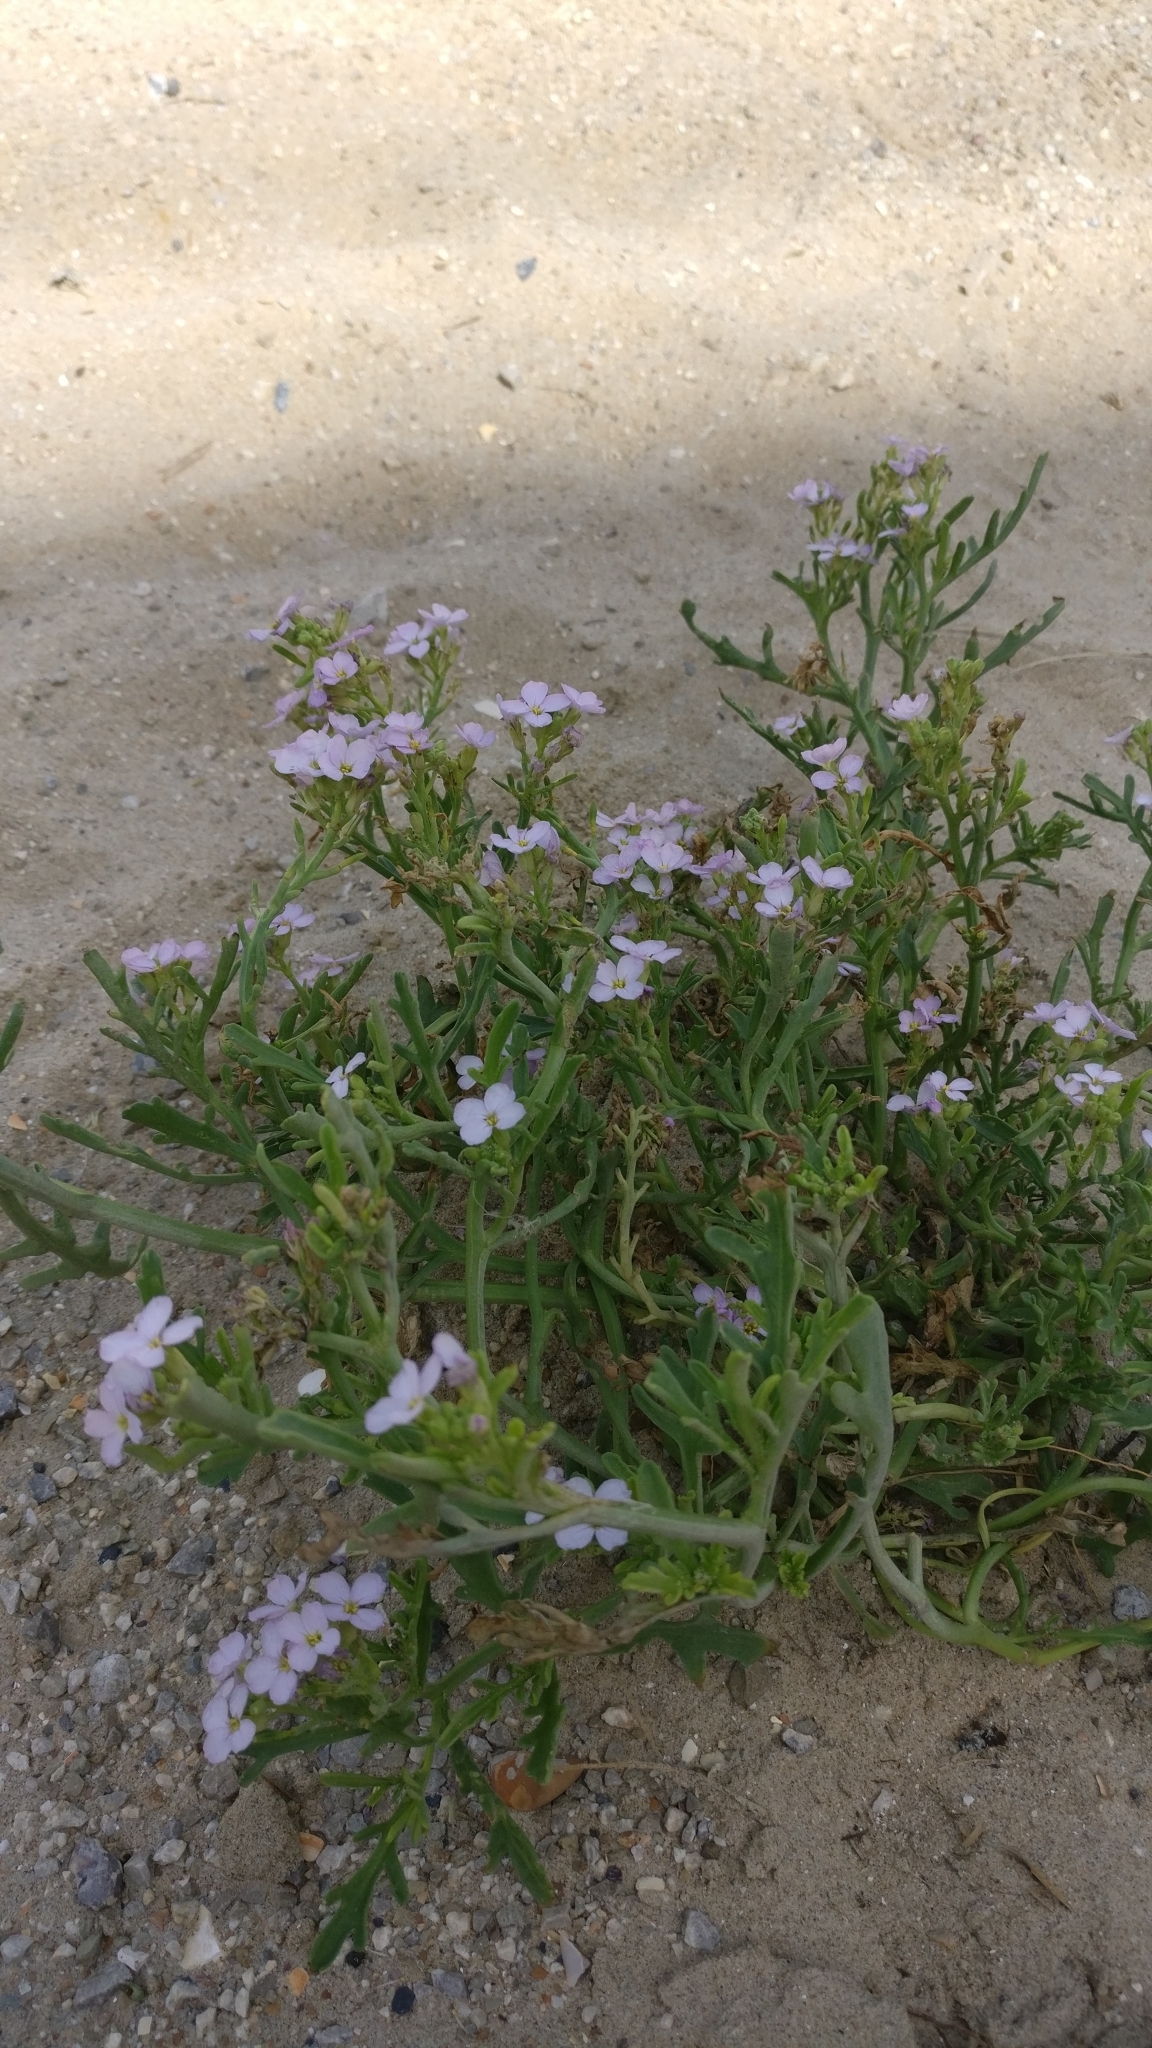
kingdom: Plantae
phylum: Tracheophyta
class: Magnoliopsida
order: Brassicales
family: Brassicaceae
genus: Cakile
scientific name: Cakile maritima
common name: Sea rocket
